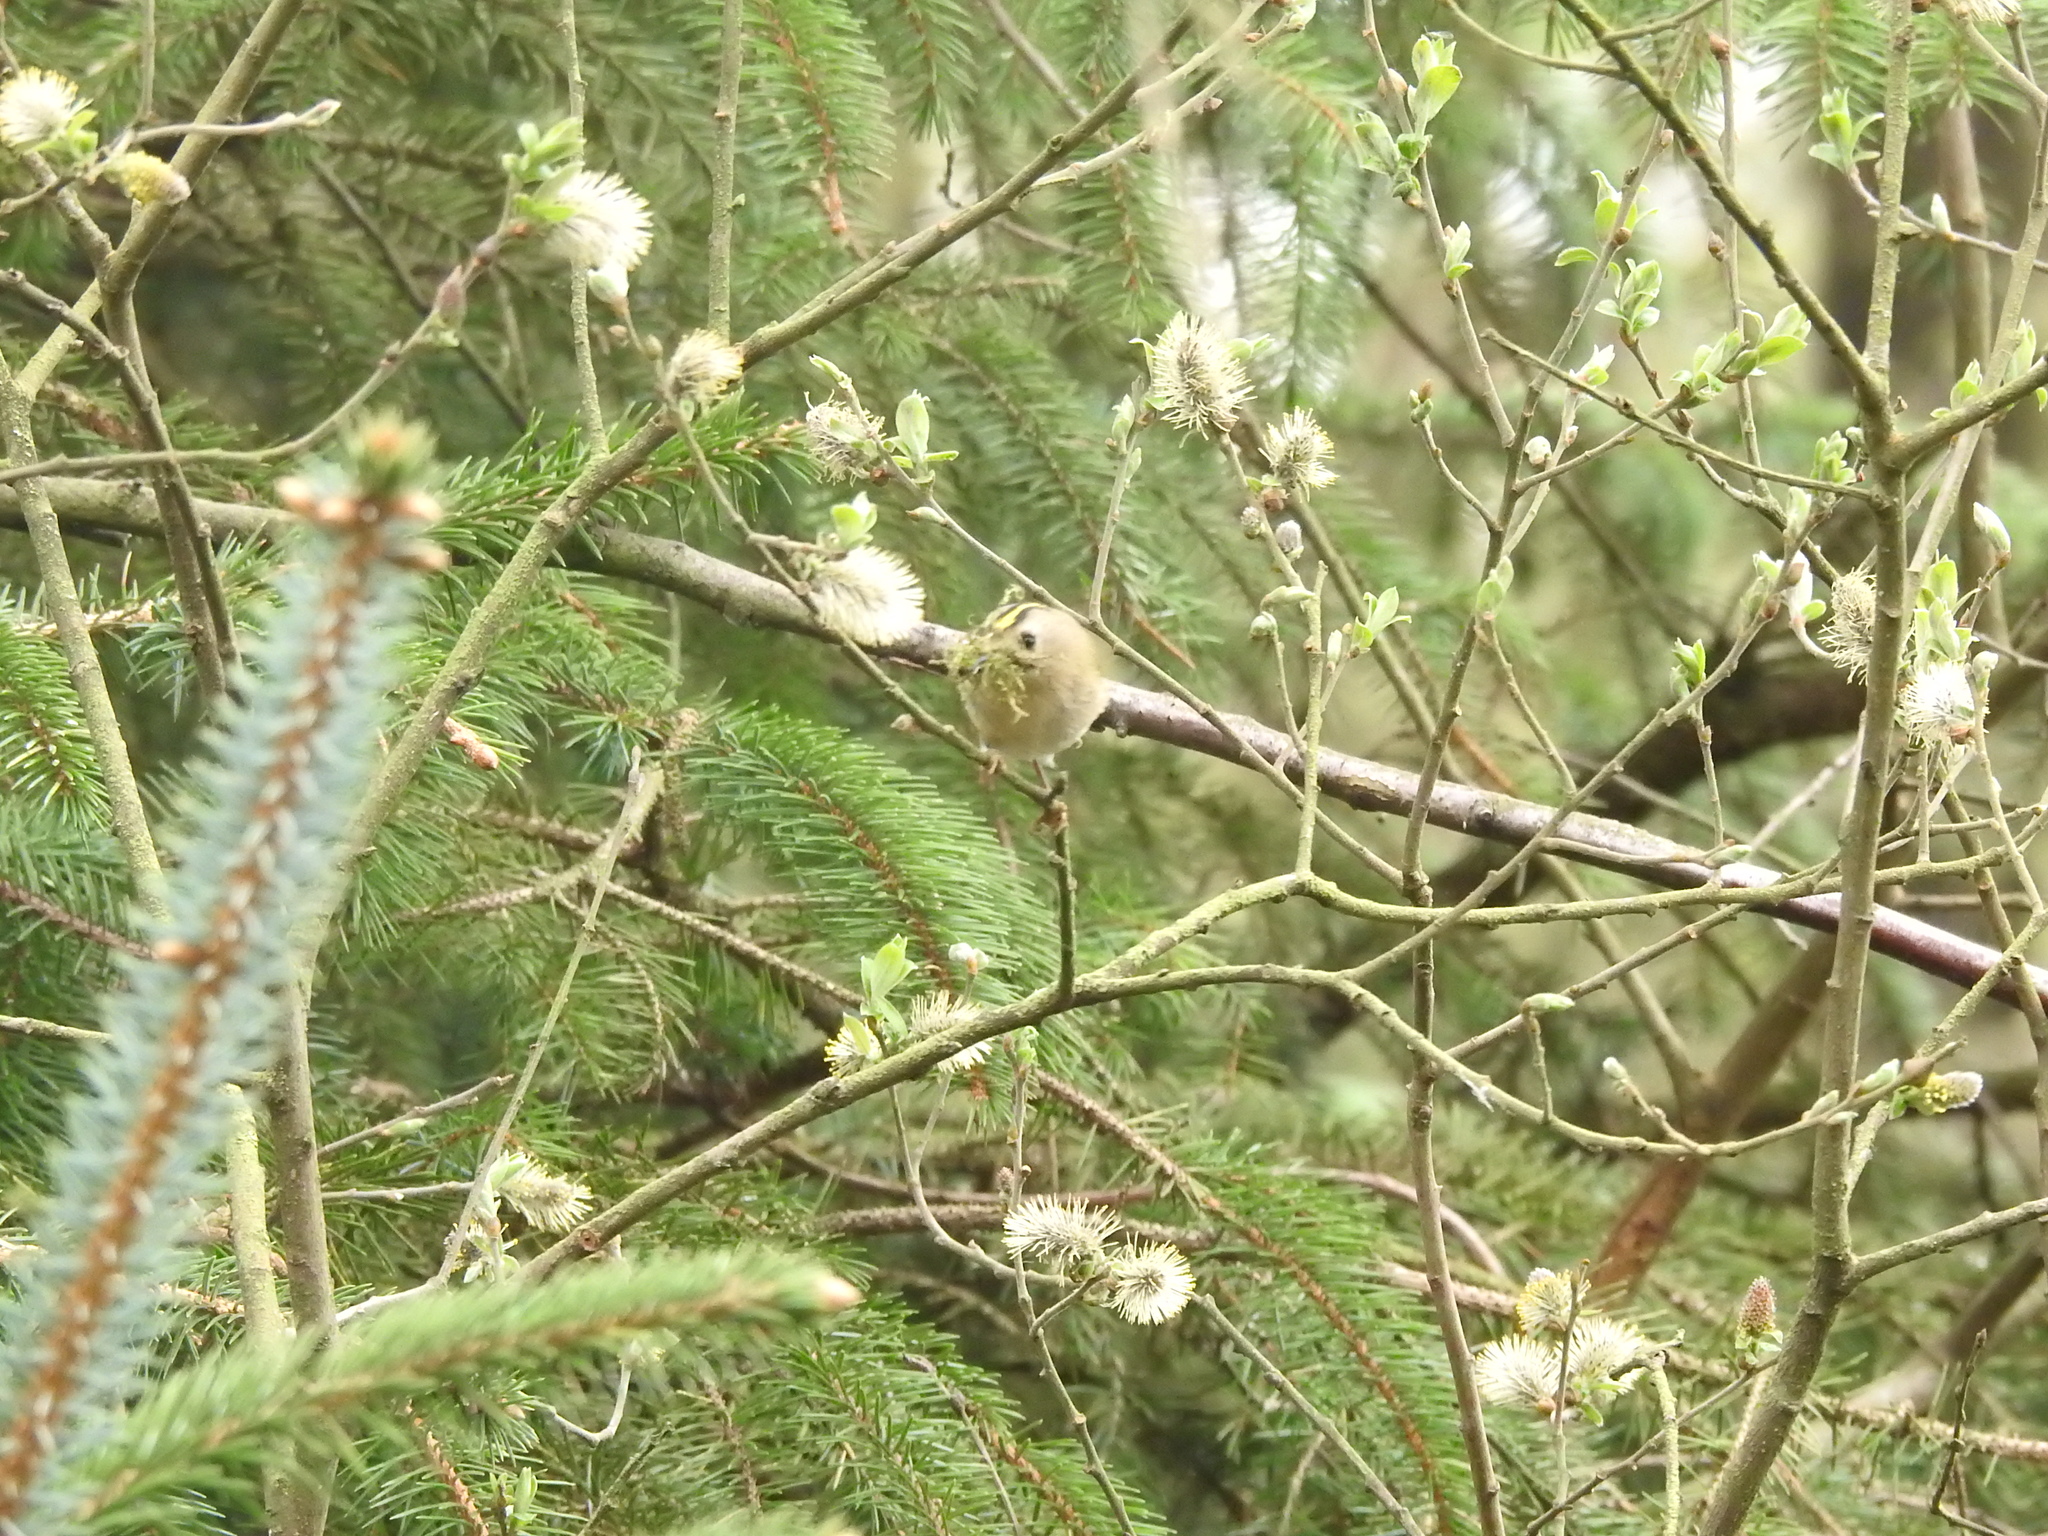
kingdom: Animalia
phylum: Chordata
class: Aves
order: Passeriformes
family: Regulidae
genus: Regulus
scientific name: Regulus regulus
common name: Goldcrest
